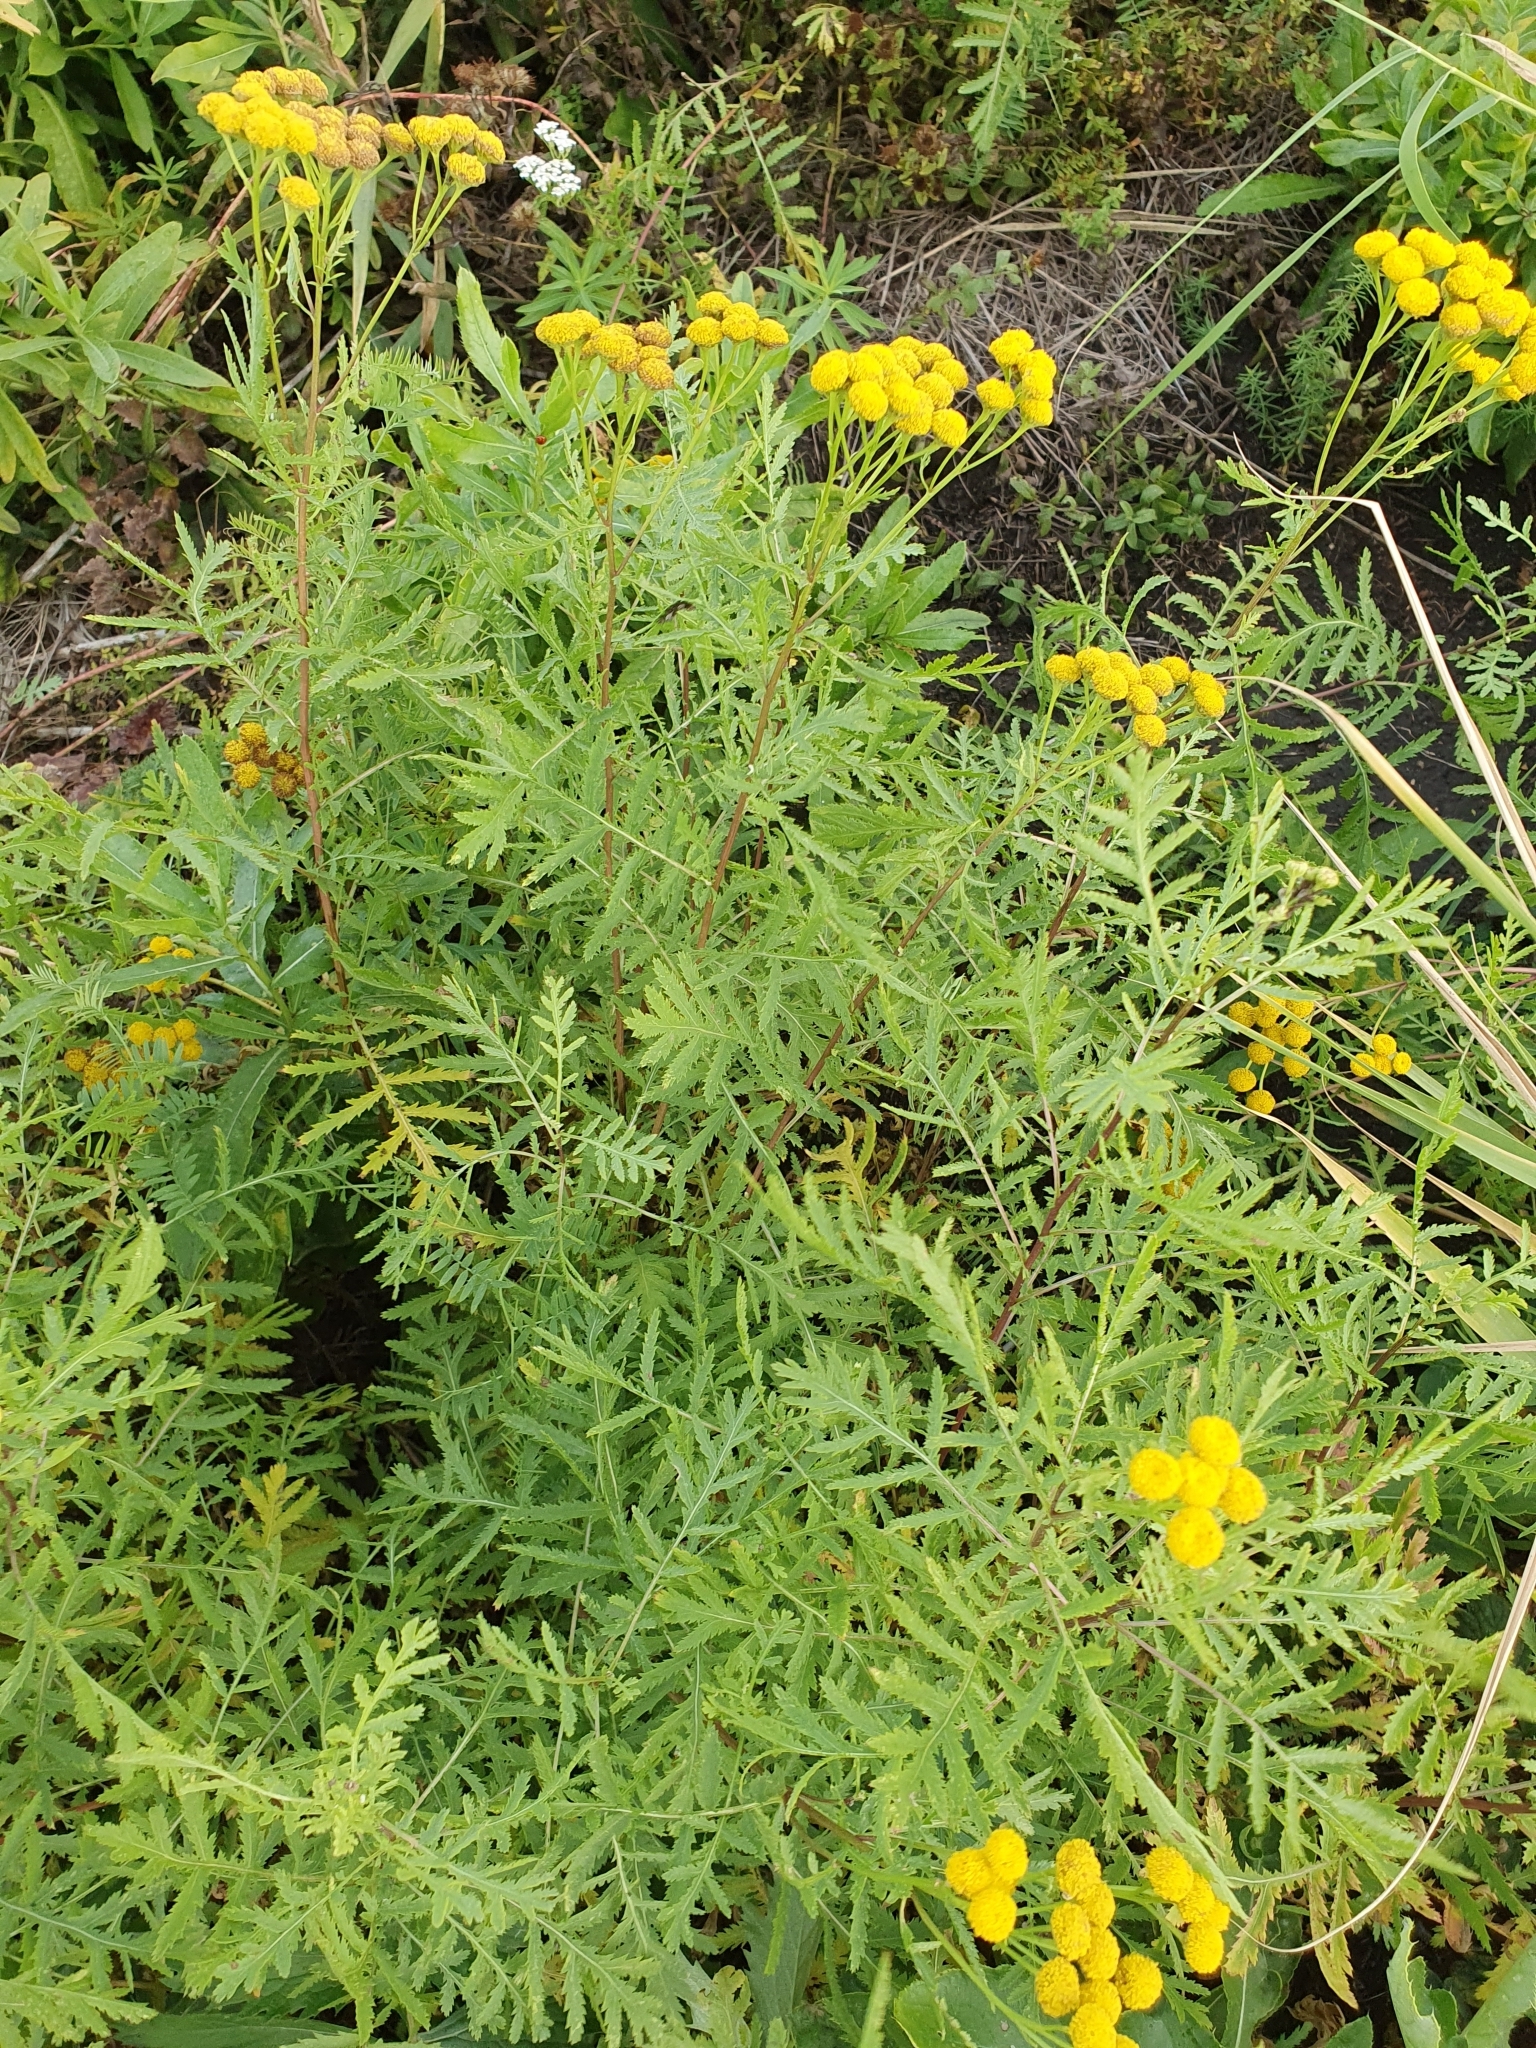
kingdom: Plantae
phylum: Tracheophyta
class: Magnoliopsida
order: Asterales
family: Asteraceae
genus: Tanacetum
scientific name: Tanacetum vulgare
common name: Common tansy
